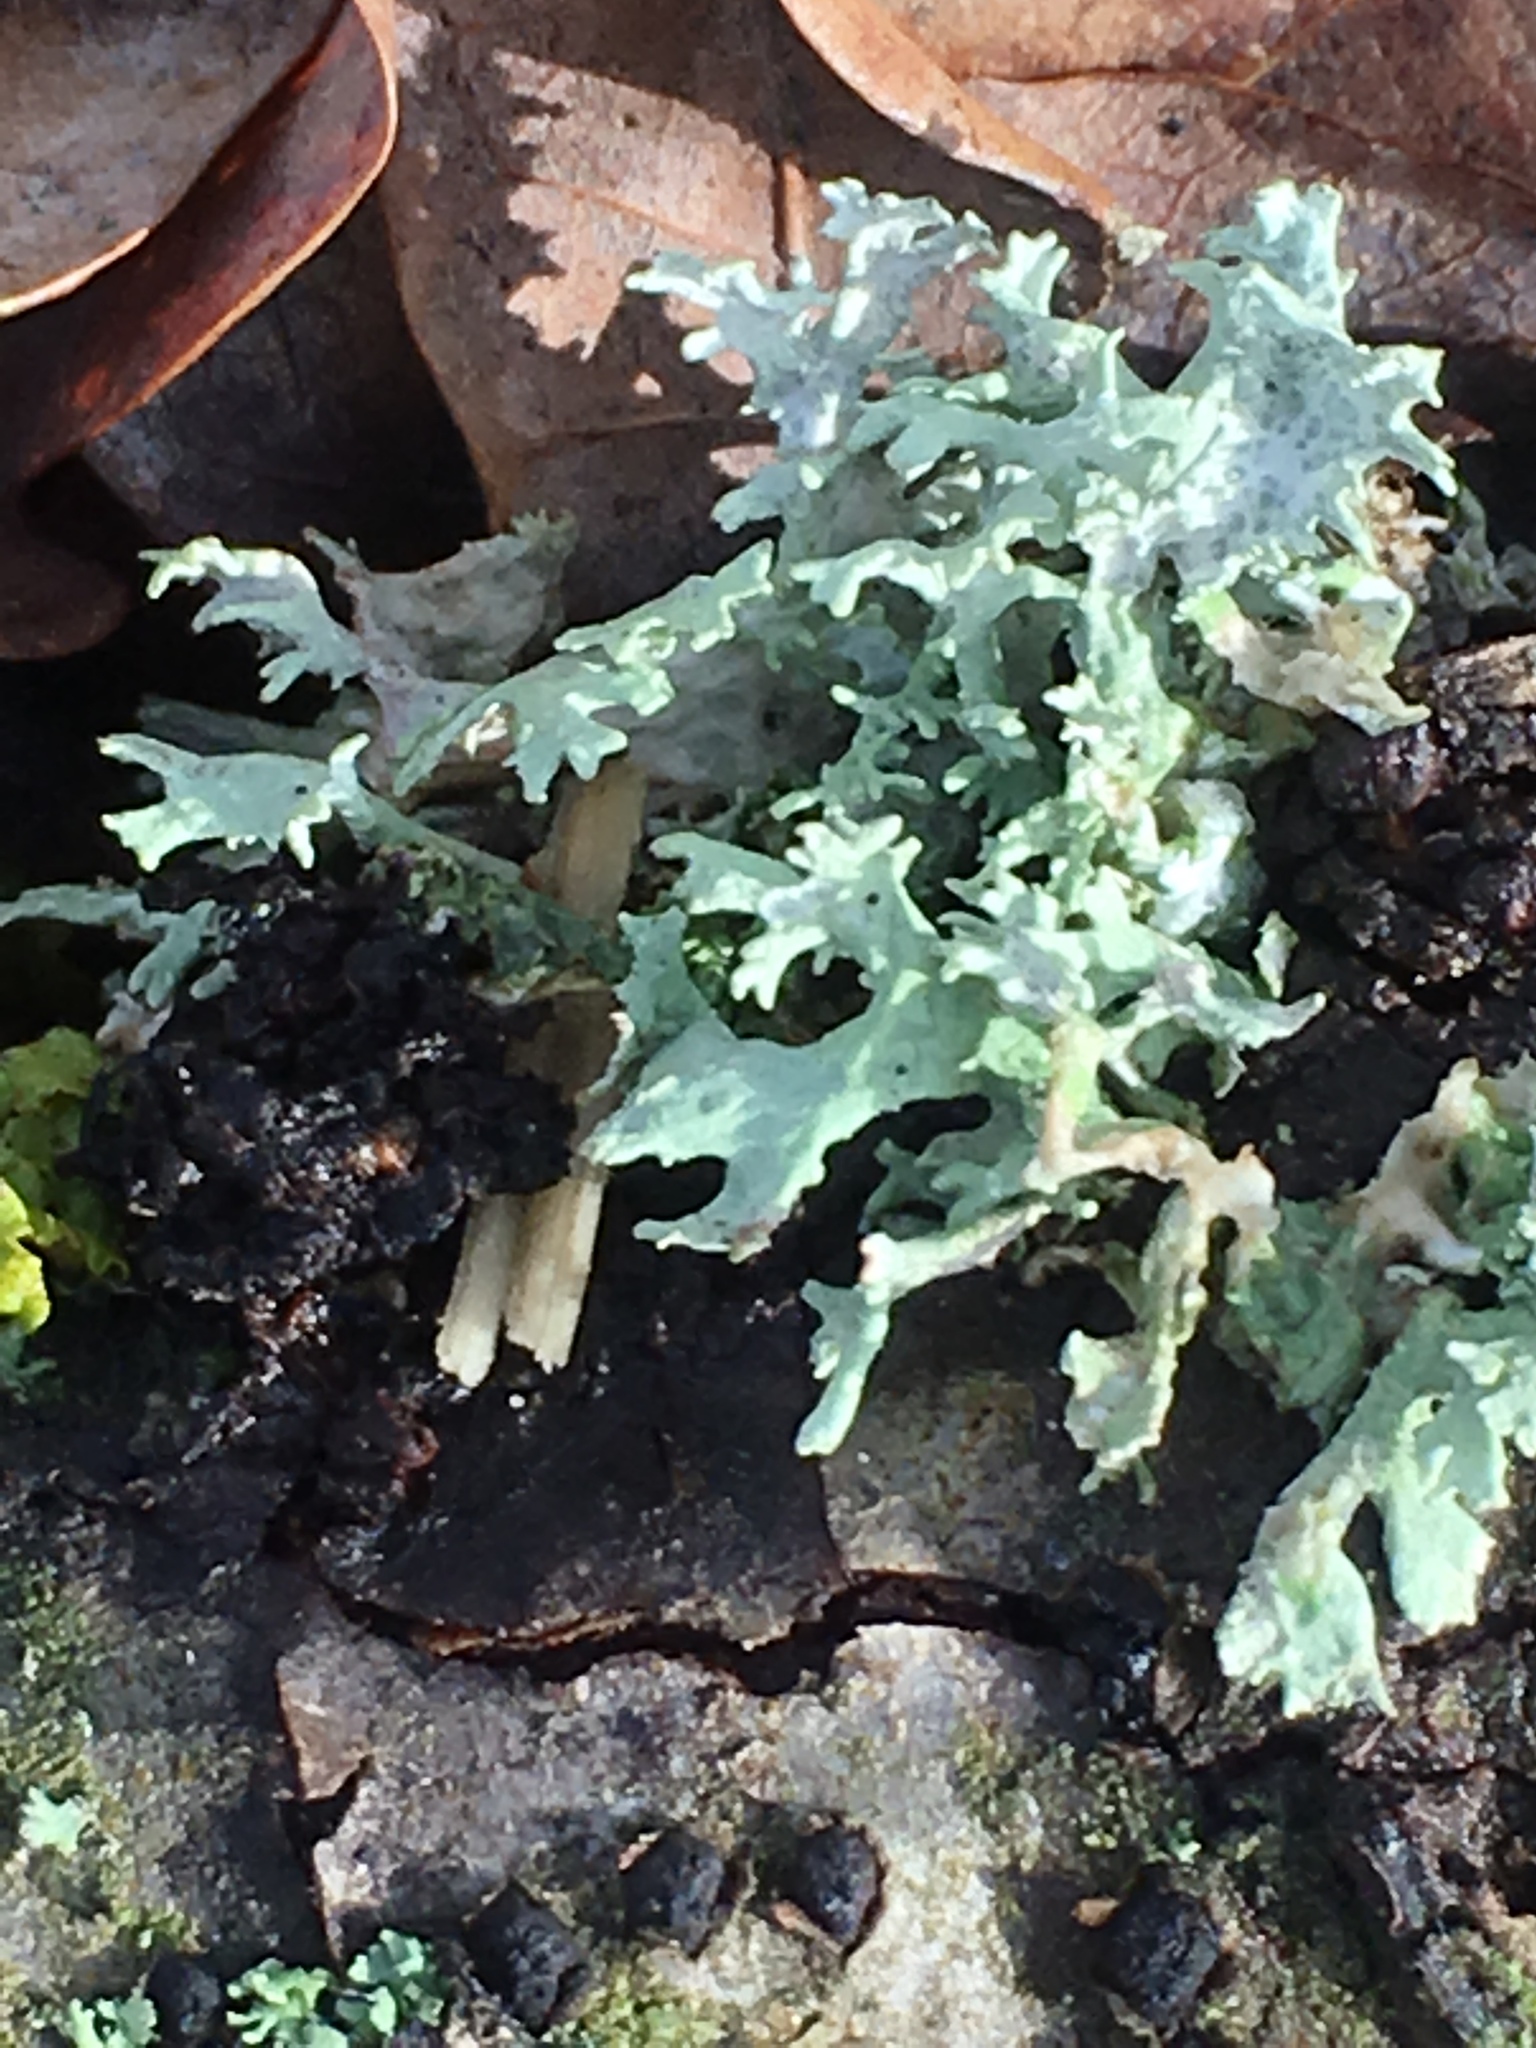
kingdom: Fungi
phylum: Ascomycota
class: Lecanoromycetes
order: Lecanorales
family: Parmeliaceae
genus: Evernia
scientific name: Evernia prunastri
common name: Oak moss
